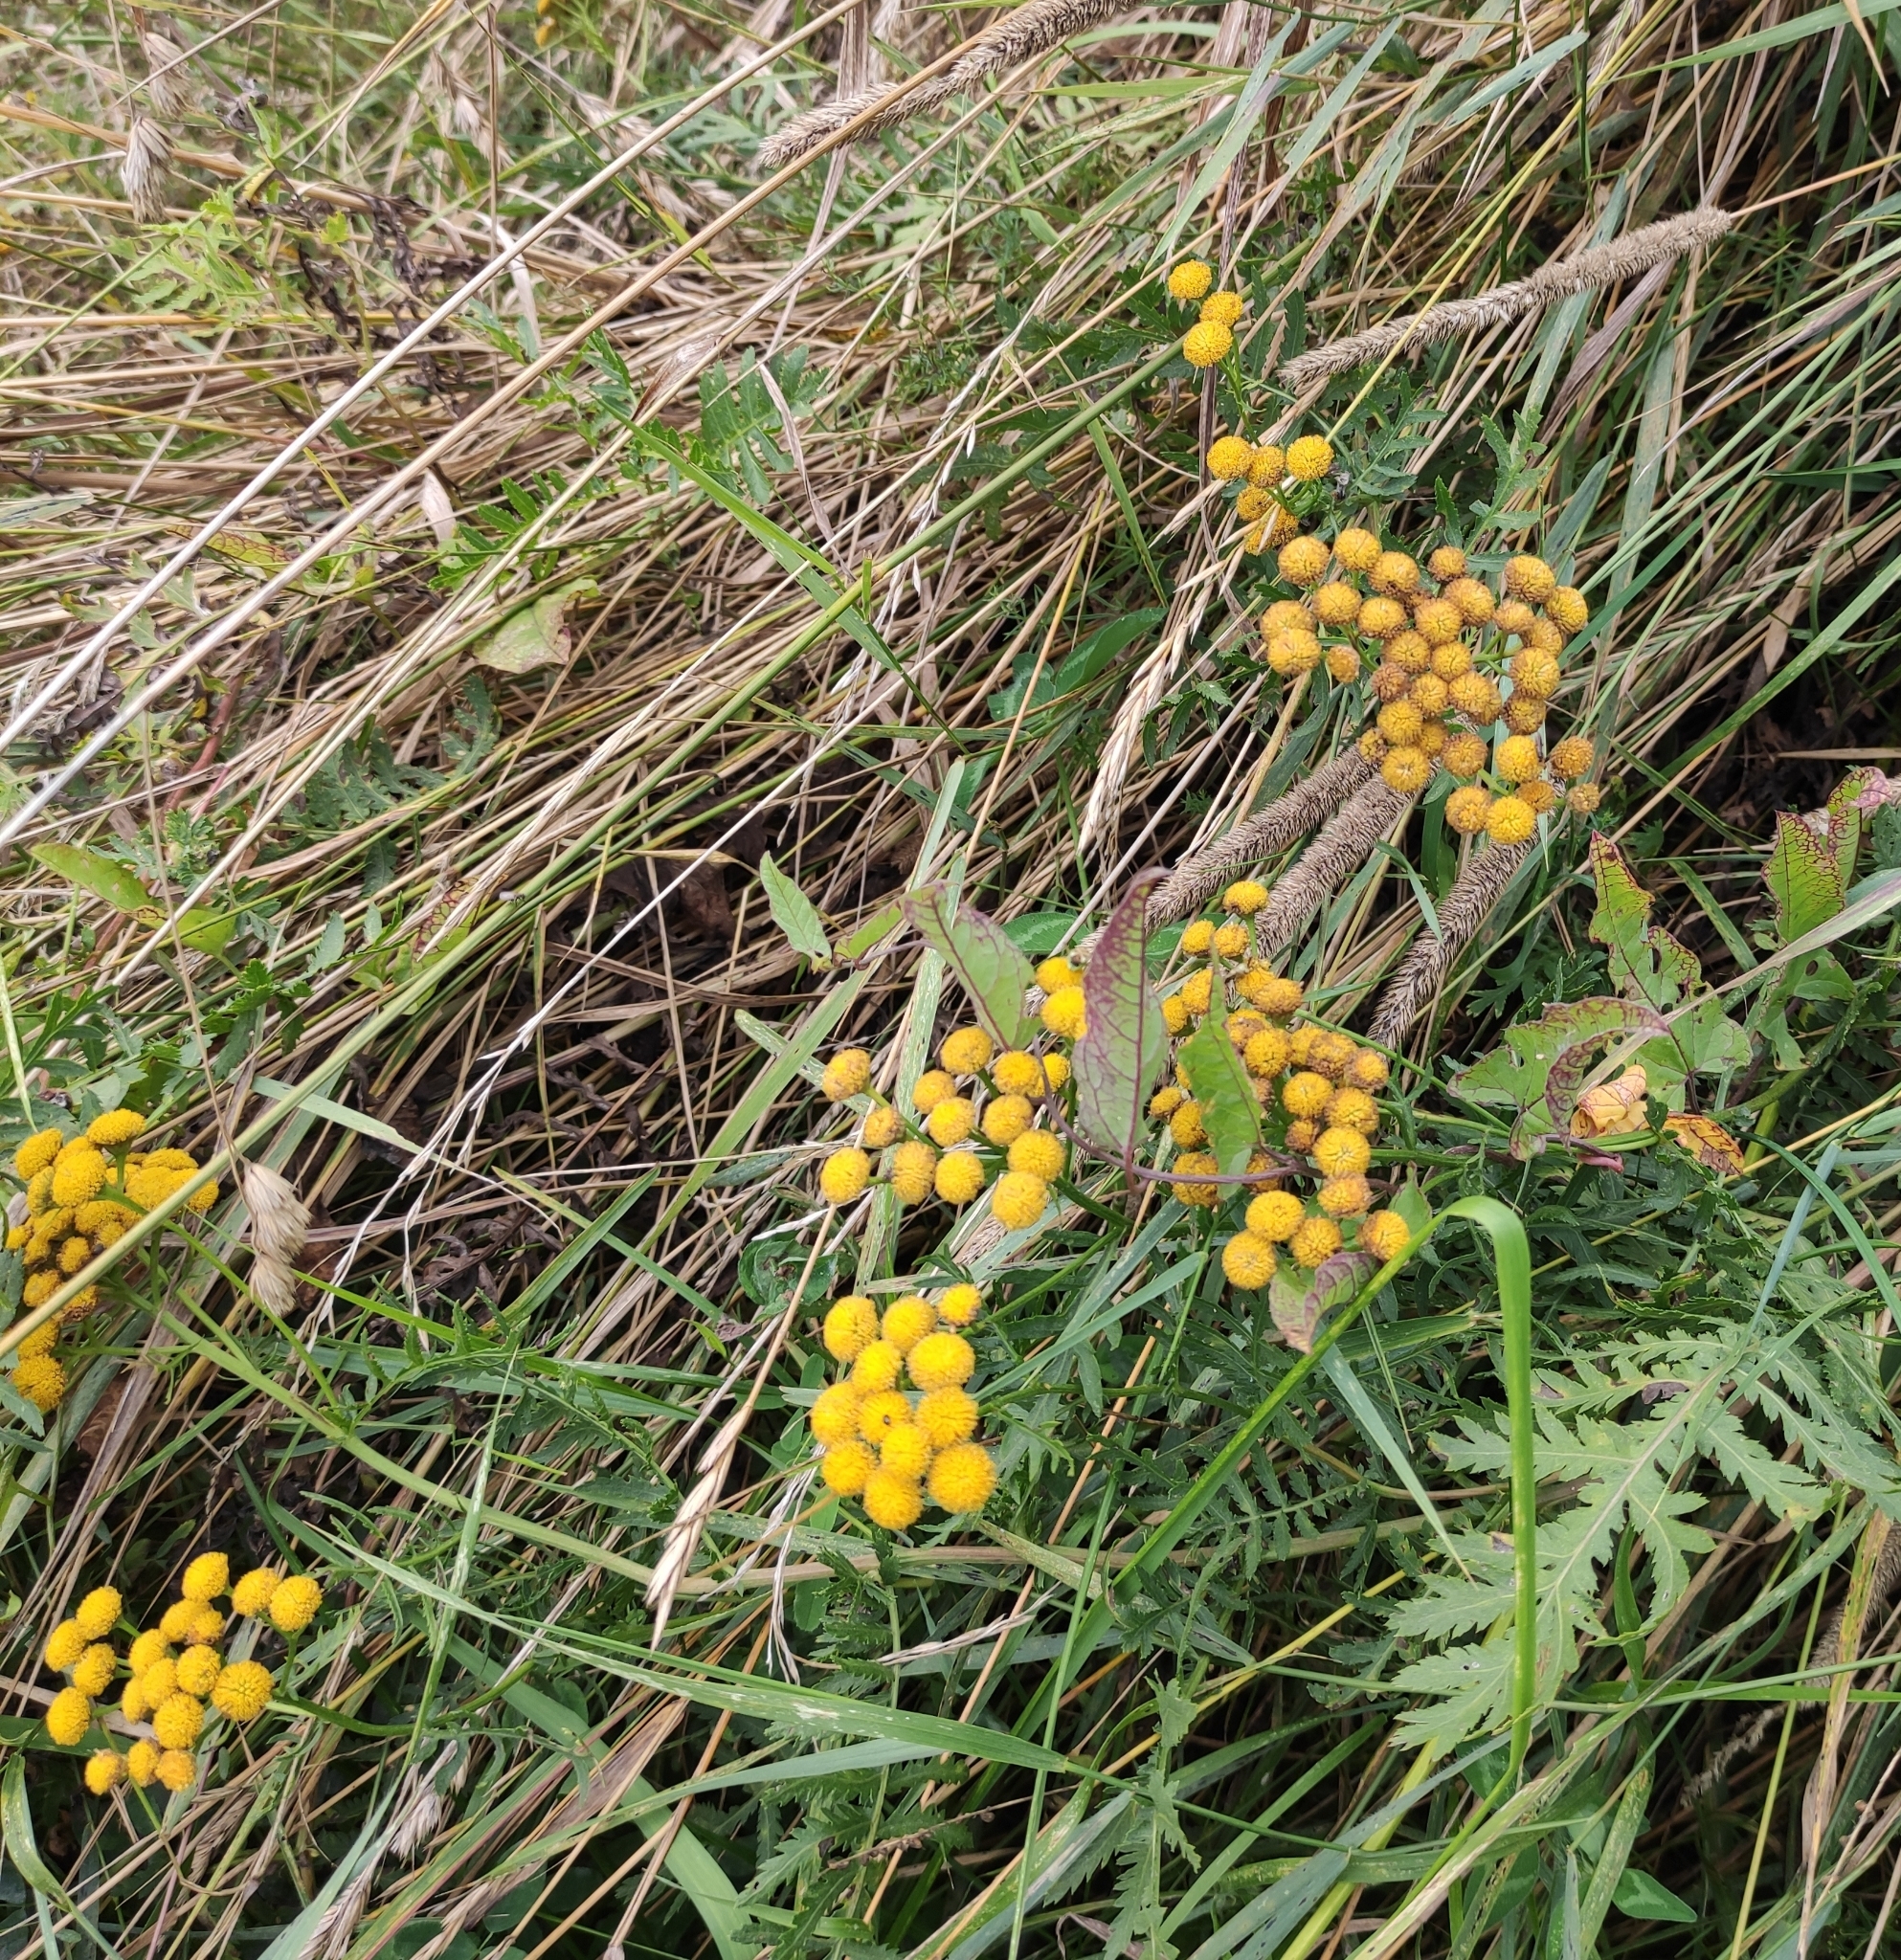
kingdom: Plantae
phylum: Tracheophyta
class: Magnoliopsida
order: Asterales
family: Asteraceae
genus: Tanacetum
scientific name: Tanacetum vulgare
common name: Common tansy
